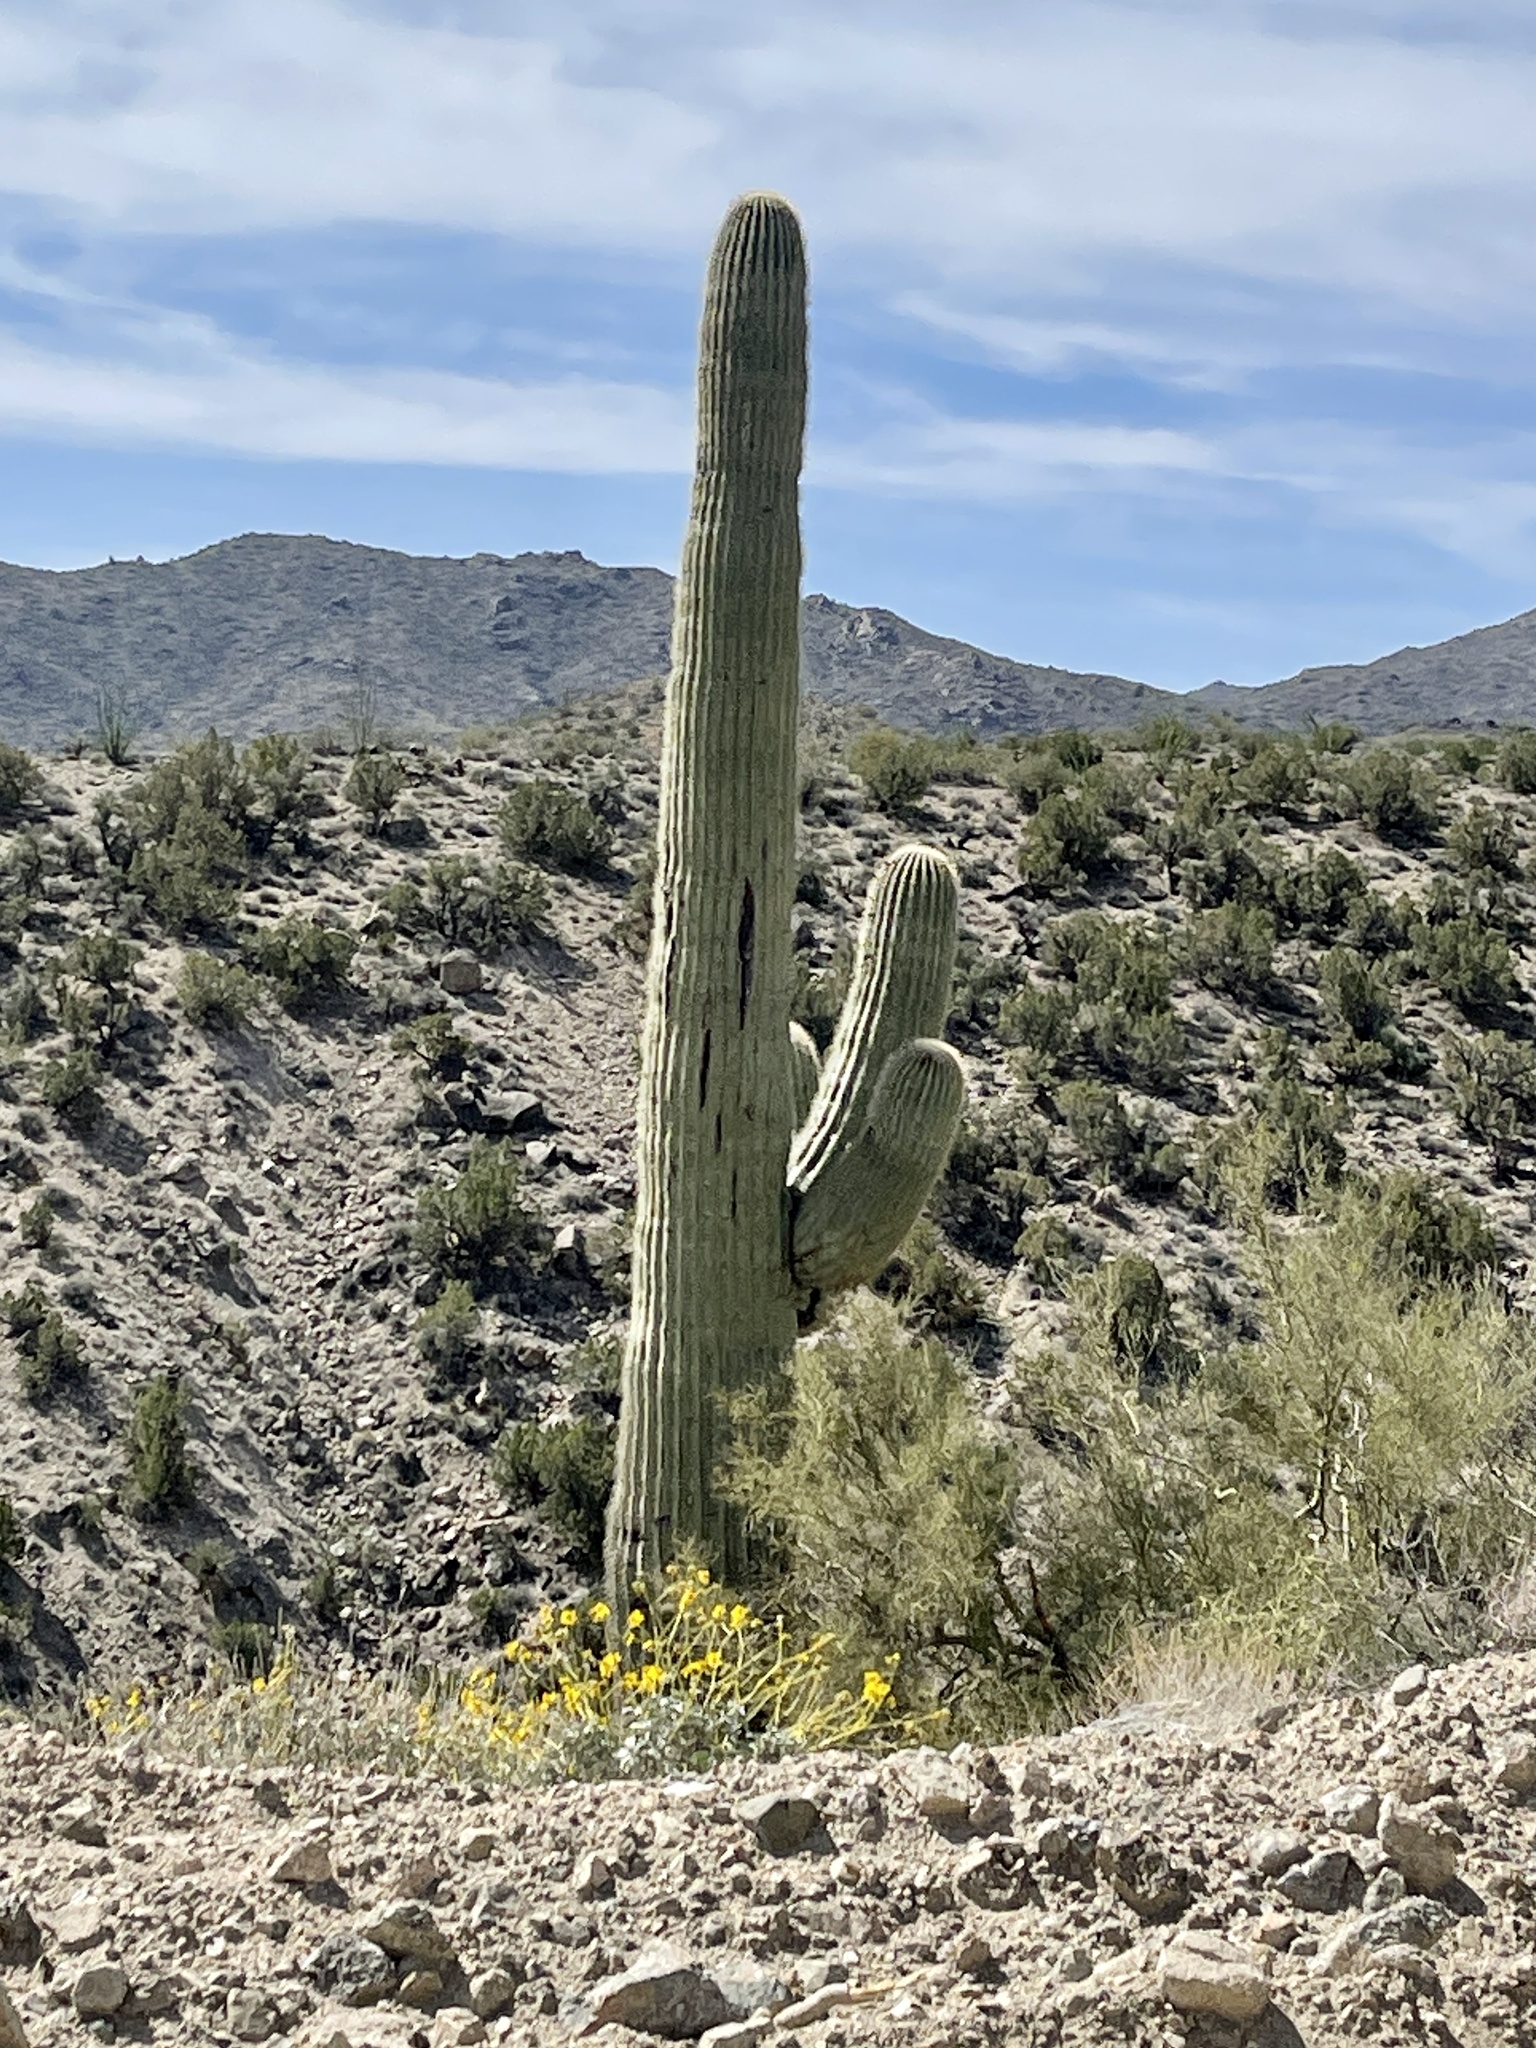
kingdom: Plantae
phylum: Tracheophyta
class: Magnoliopsida
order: Caryophyllales
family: Cactaceae
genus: Carnegiea
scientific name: Carnegiea gigantea
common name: Saguaro
